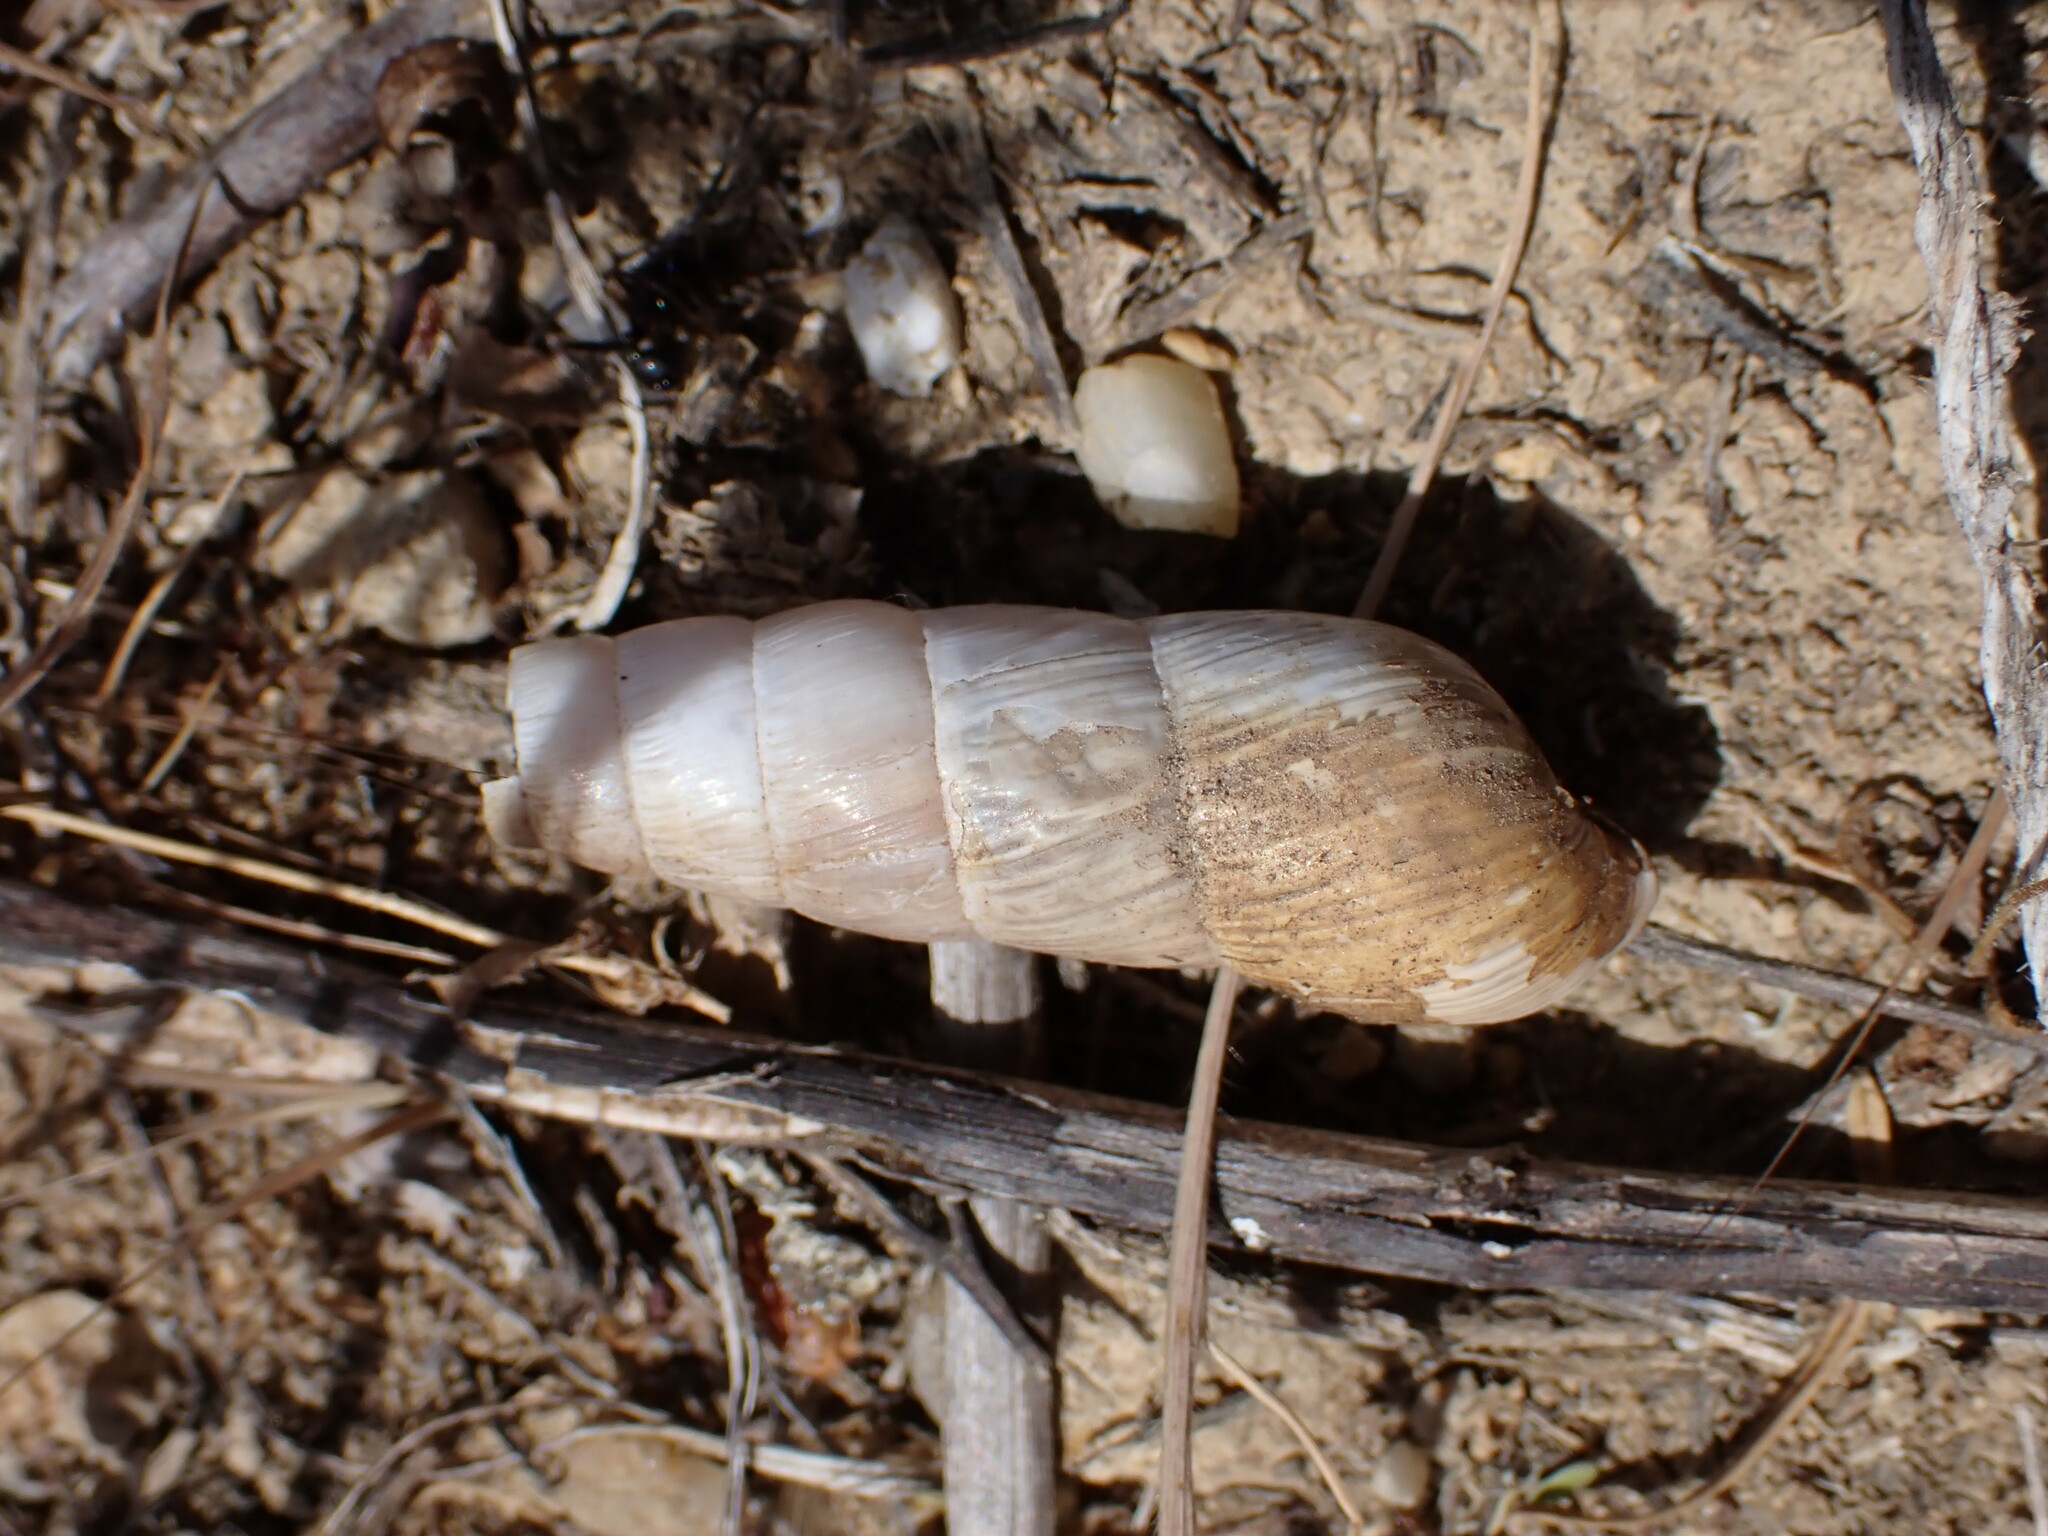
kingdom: Animalia
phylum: Mollusca
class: Gastropoda
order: Stylommatophora
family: Achatinidae
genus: Rumina
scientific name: Rumina decollata
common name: Decollate snail
